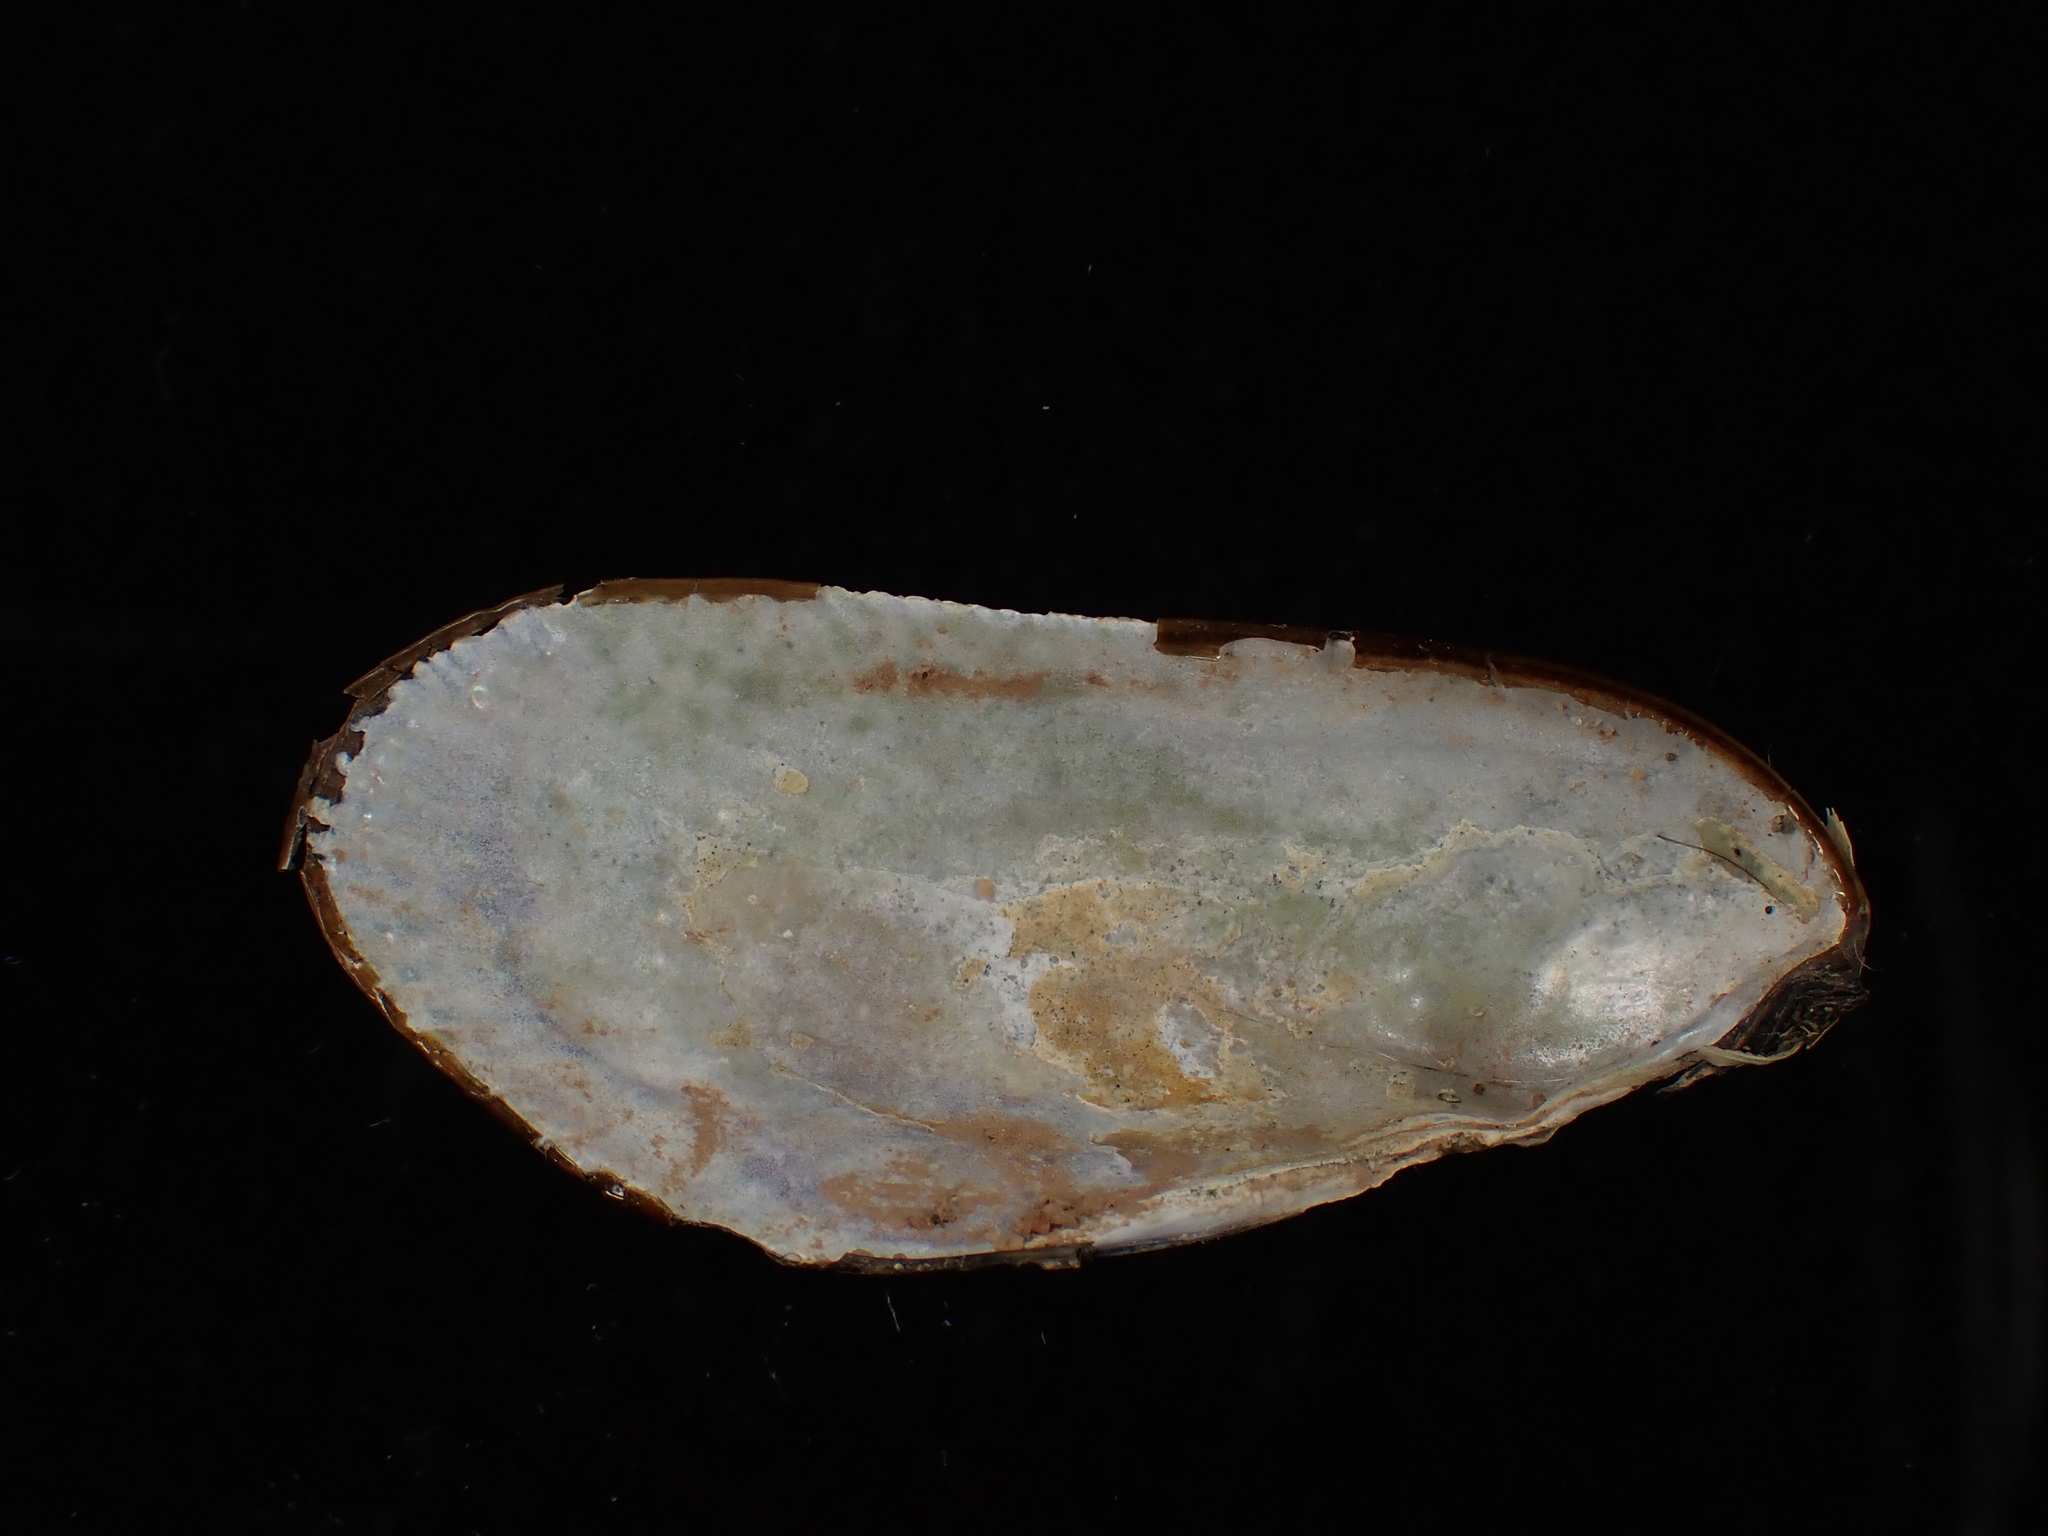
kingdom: Animalia
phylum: Mollusca
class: Bivalvia
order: Mytilida
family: Mytilidae
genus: Geukensia
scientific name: Geukensia demissa
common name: Ribbed mussel
